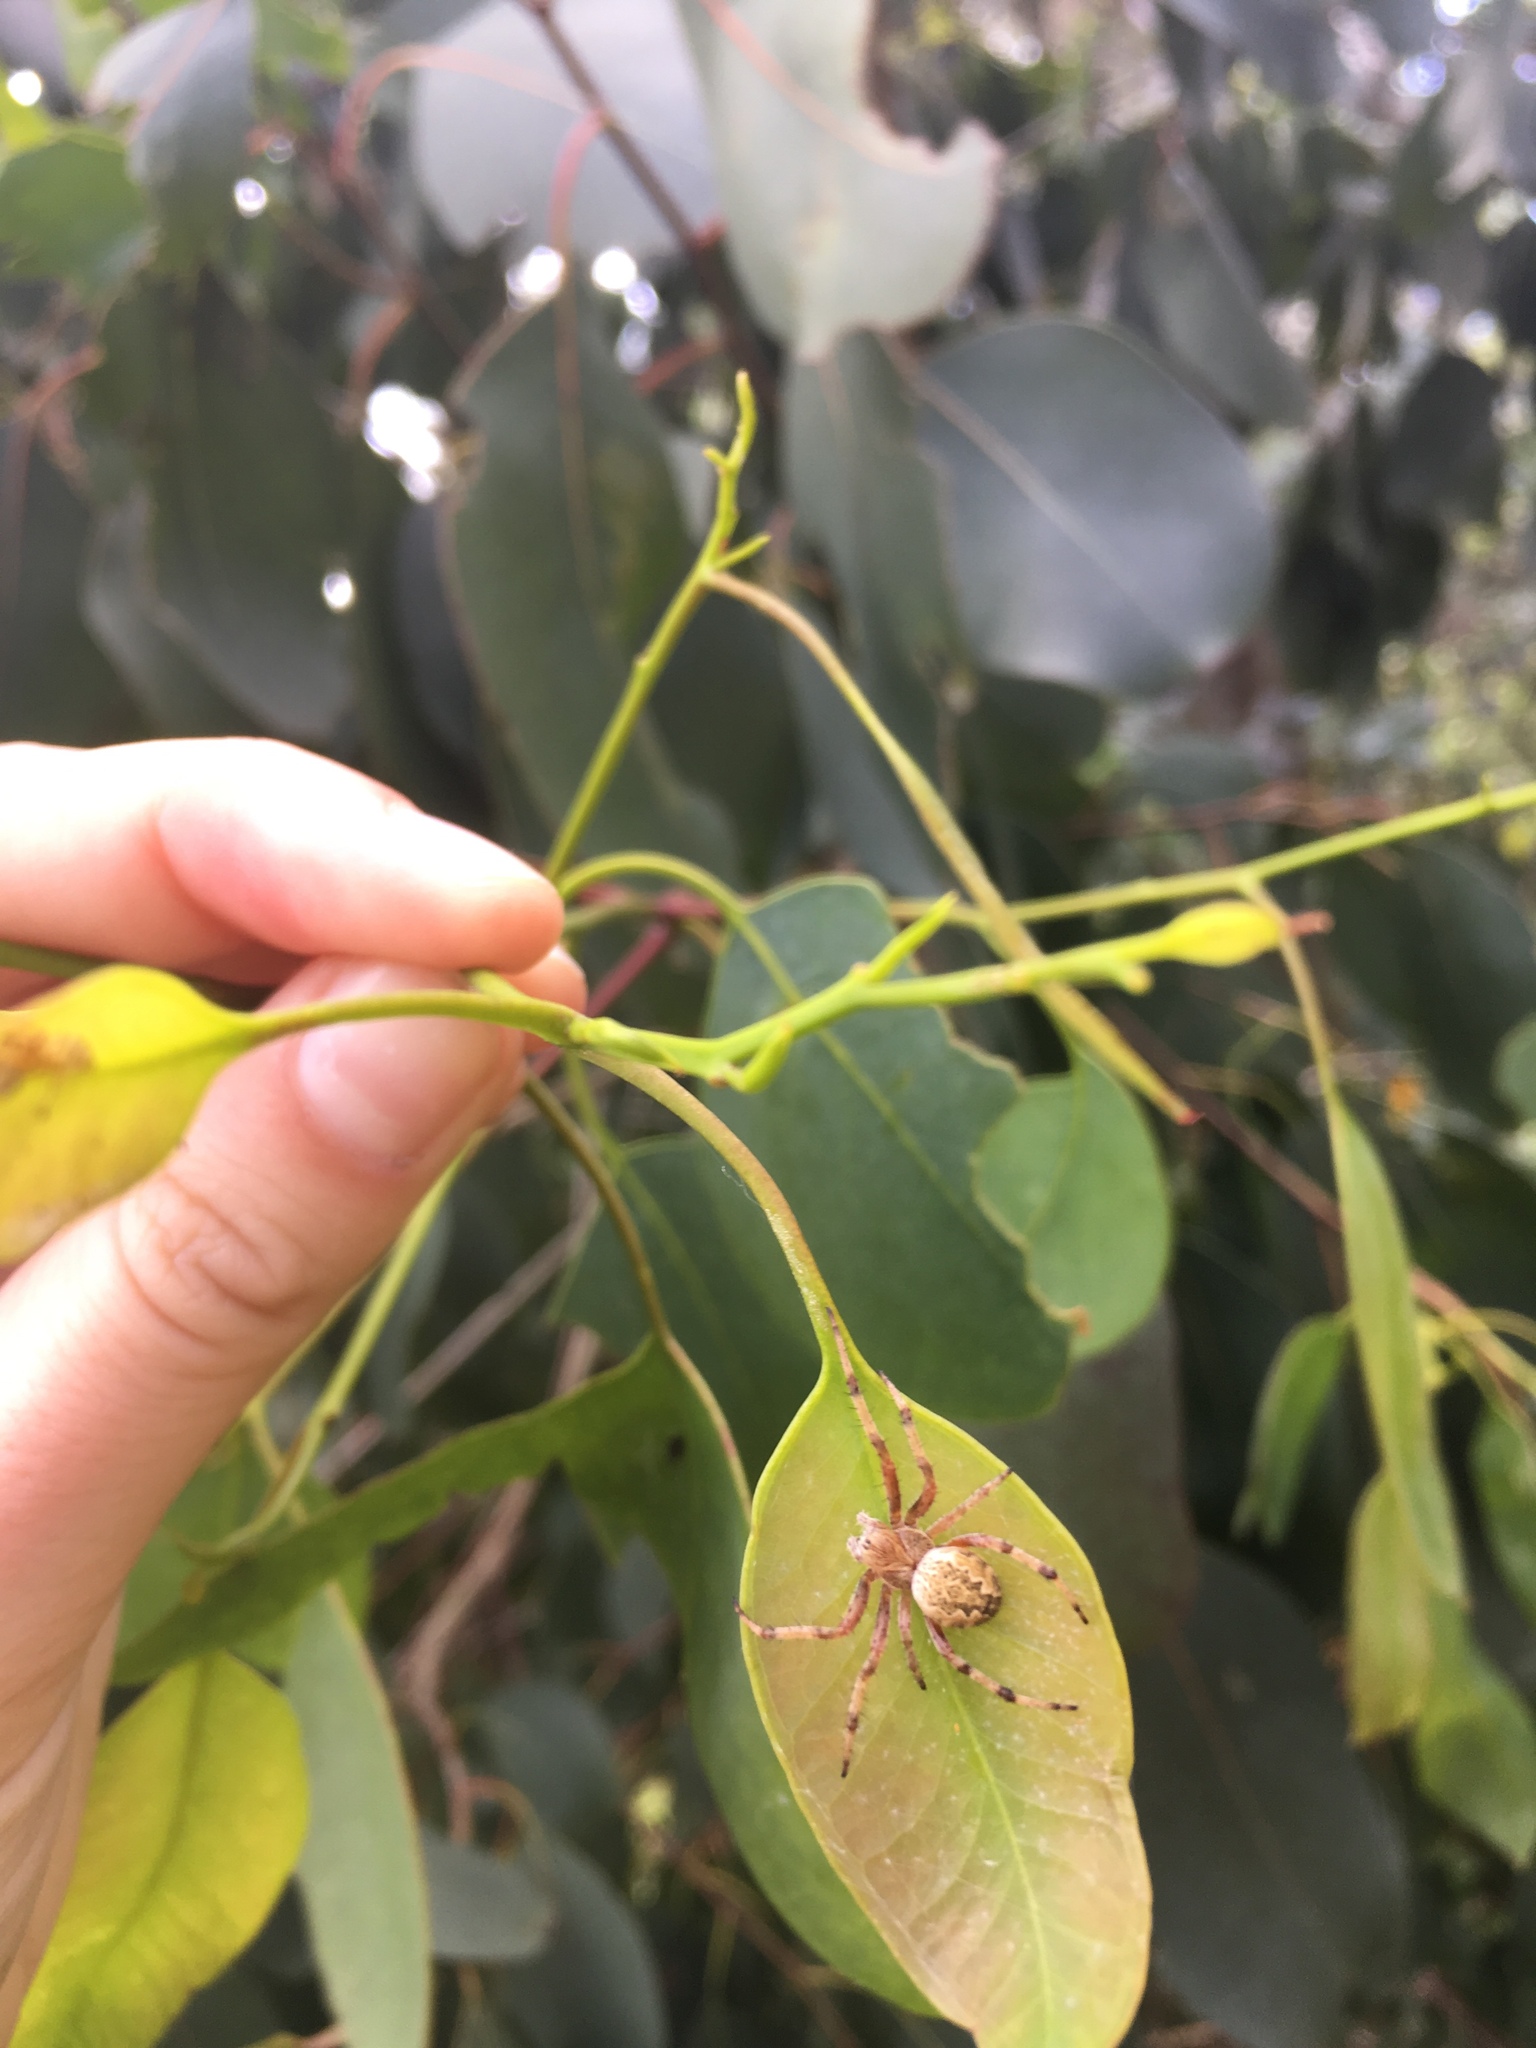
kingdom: Animalia
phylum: Arthropoda
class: Arachnida
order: Araneae
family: Araneidae
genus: Salsa
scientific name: Salsa fuliginata
